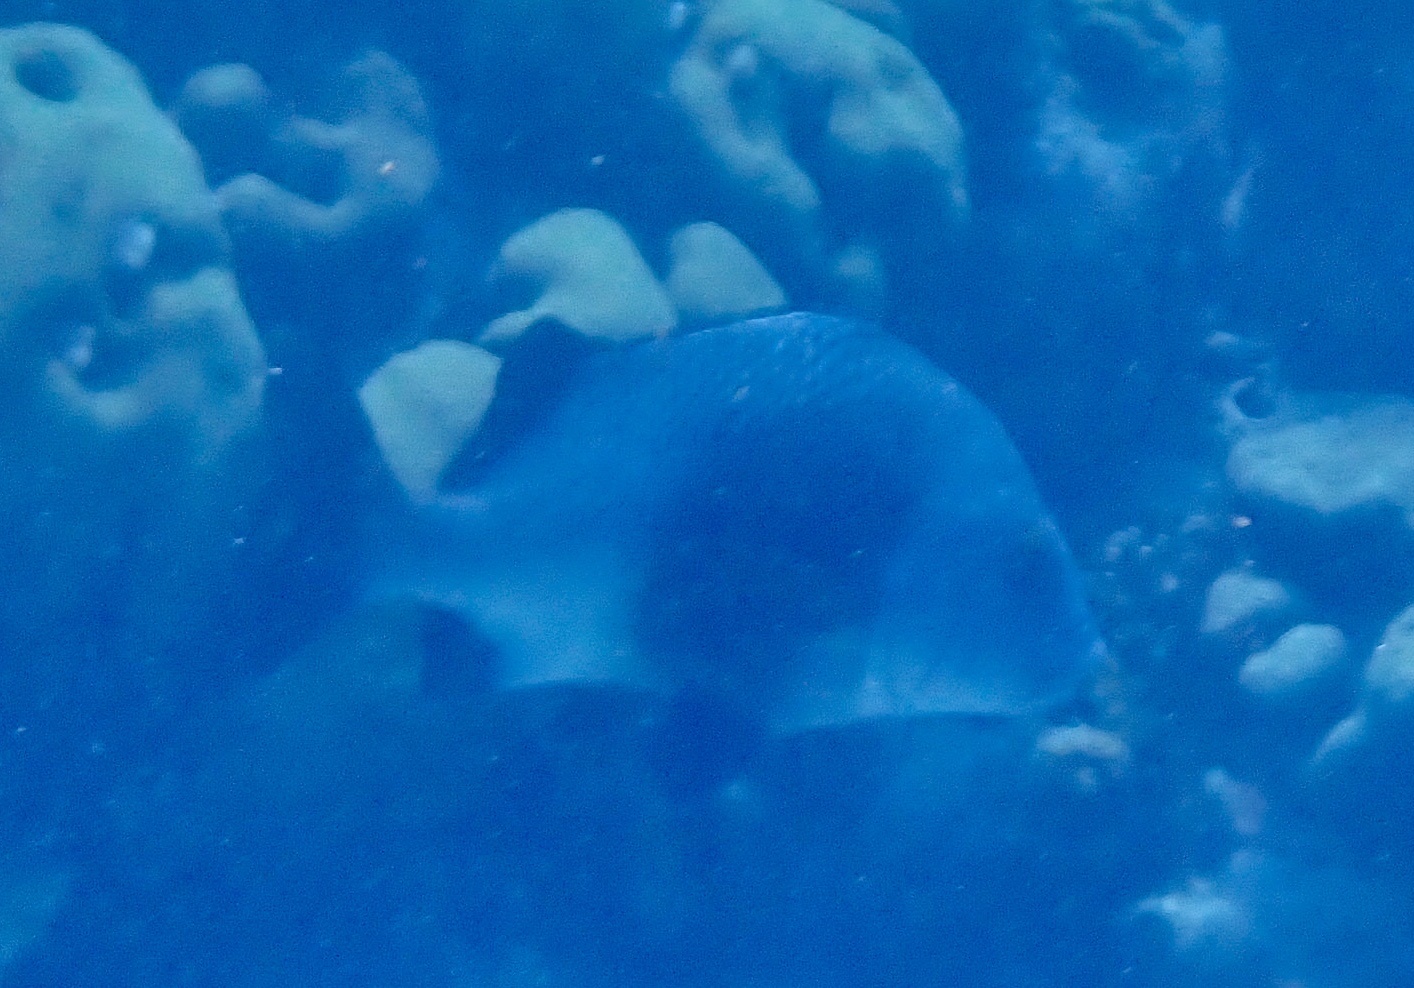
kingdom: Animalia
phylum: Chordata
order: Perciformes
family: Haemulidae
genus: Anisotremus
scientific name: Anisotremus surinamensis
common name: Black margate
